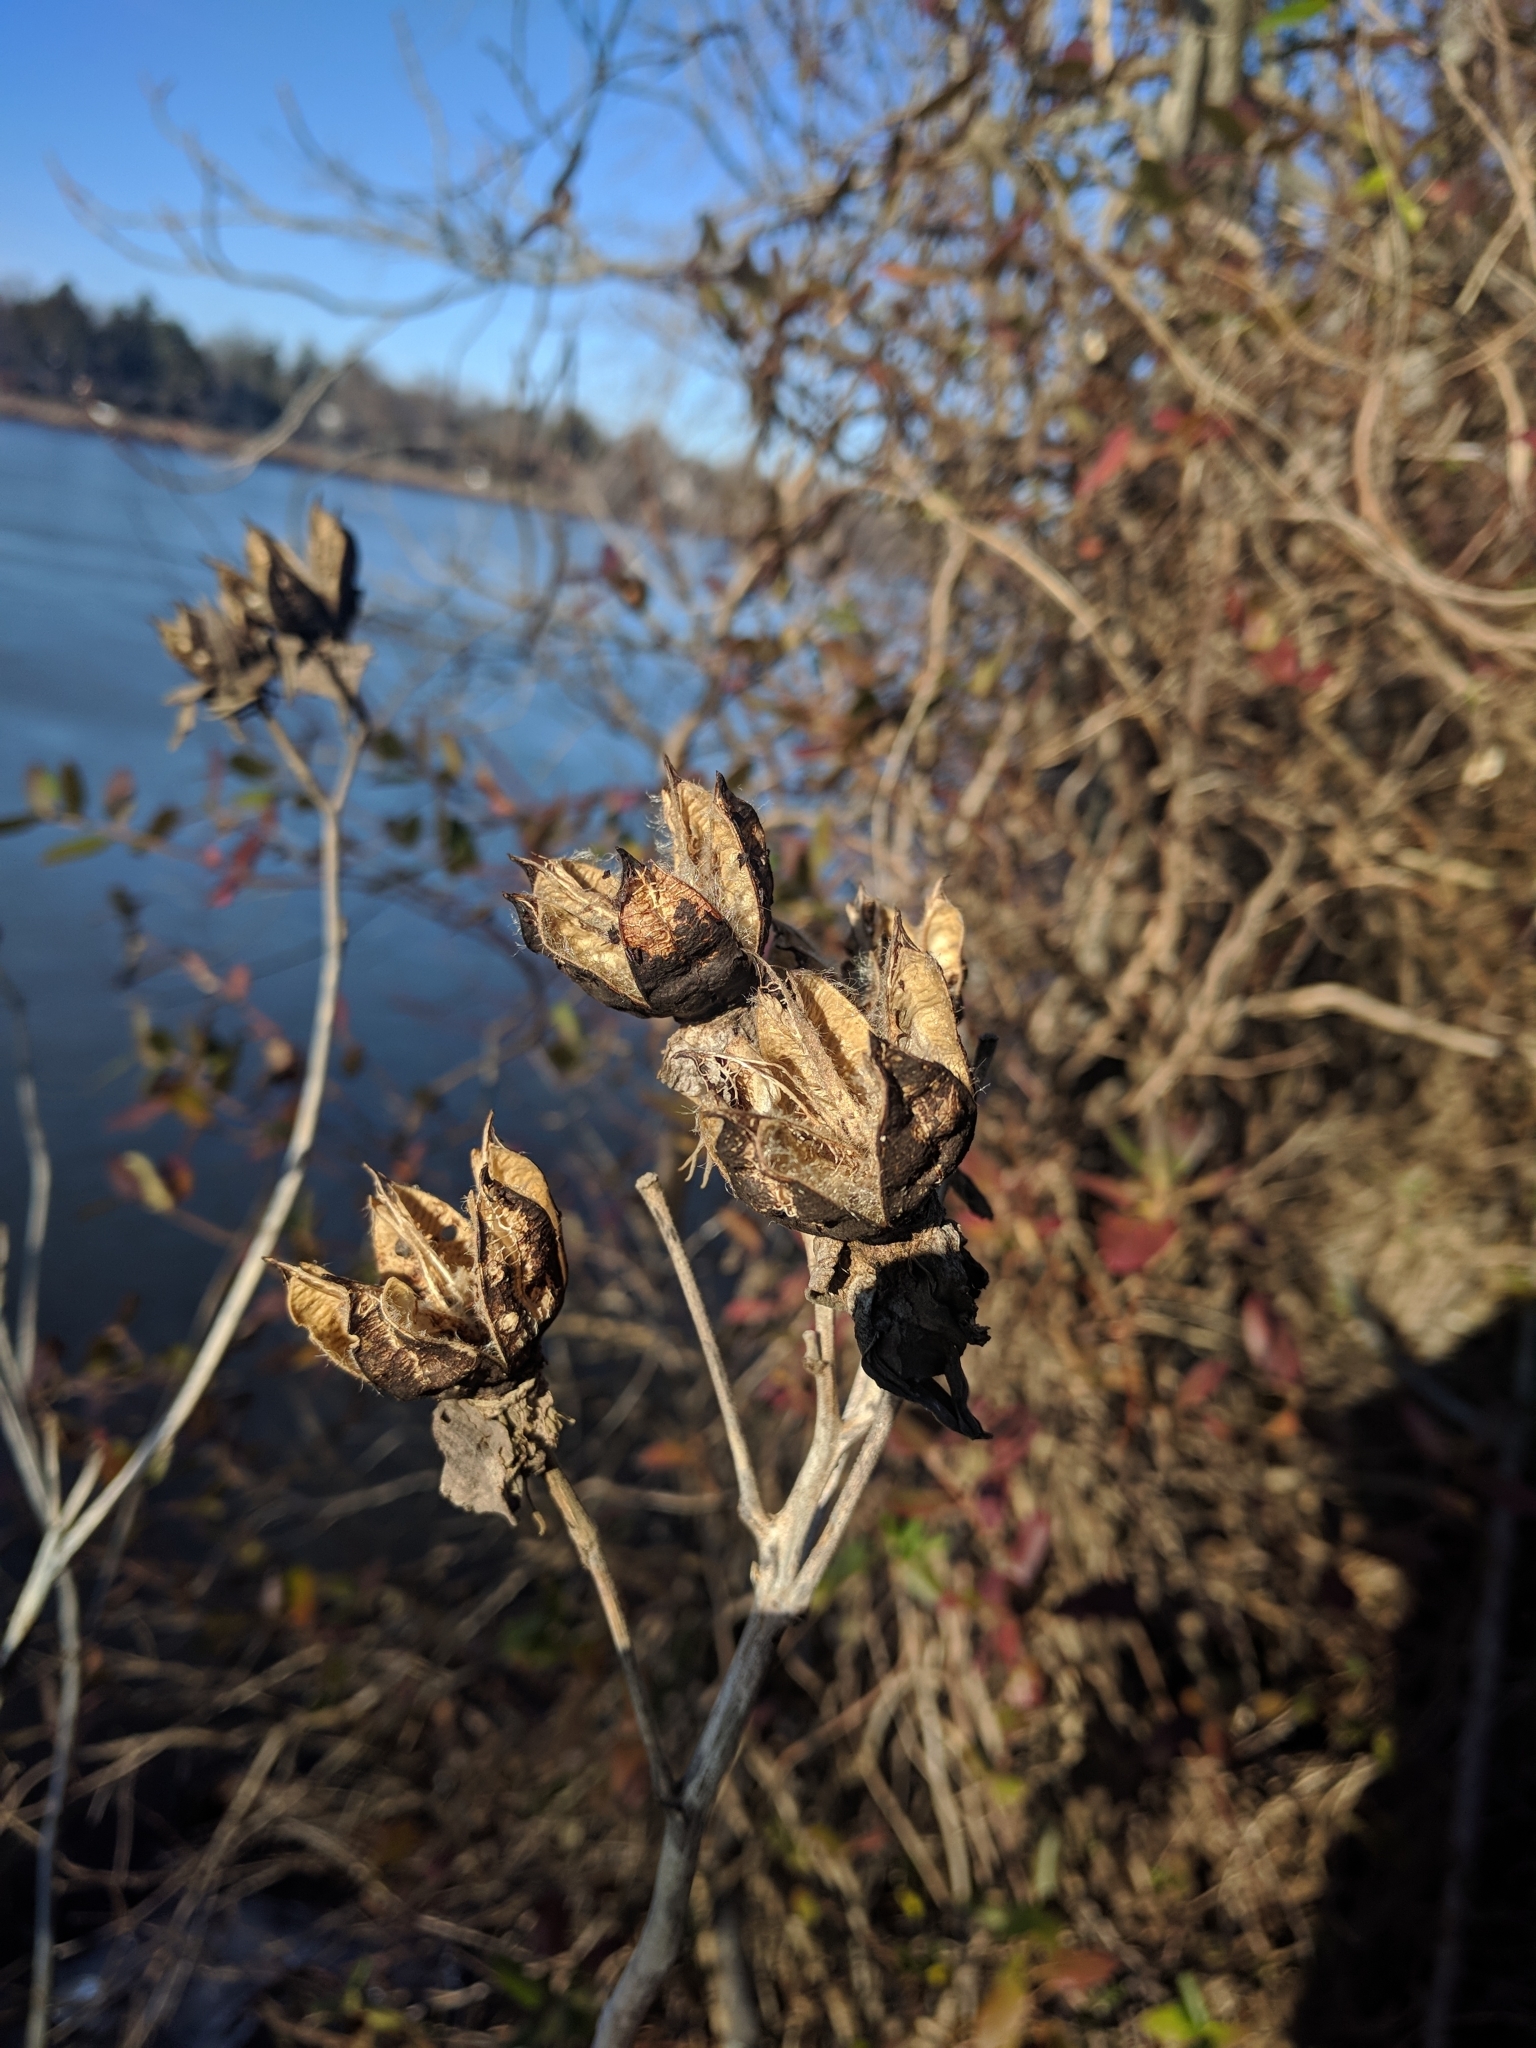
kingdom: Plantae
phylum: Tracheophyta
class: Magnoliopsida
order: Malvales
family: Malvaceae
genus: Hibiscus
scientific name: Hibiscus moscheutos
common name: Common rose-mallow
